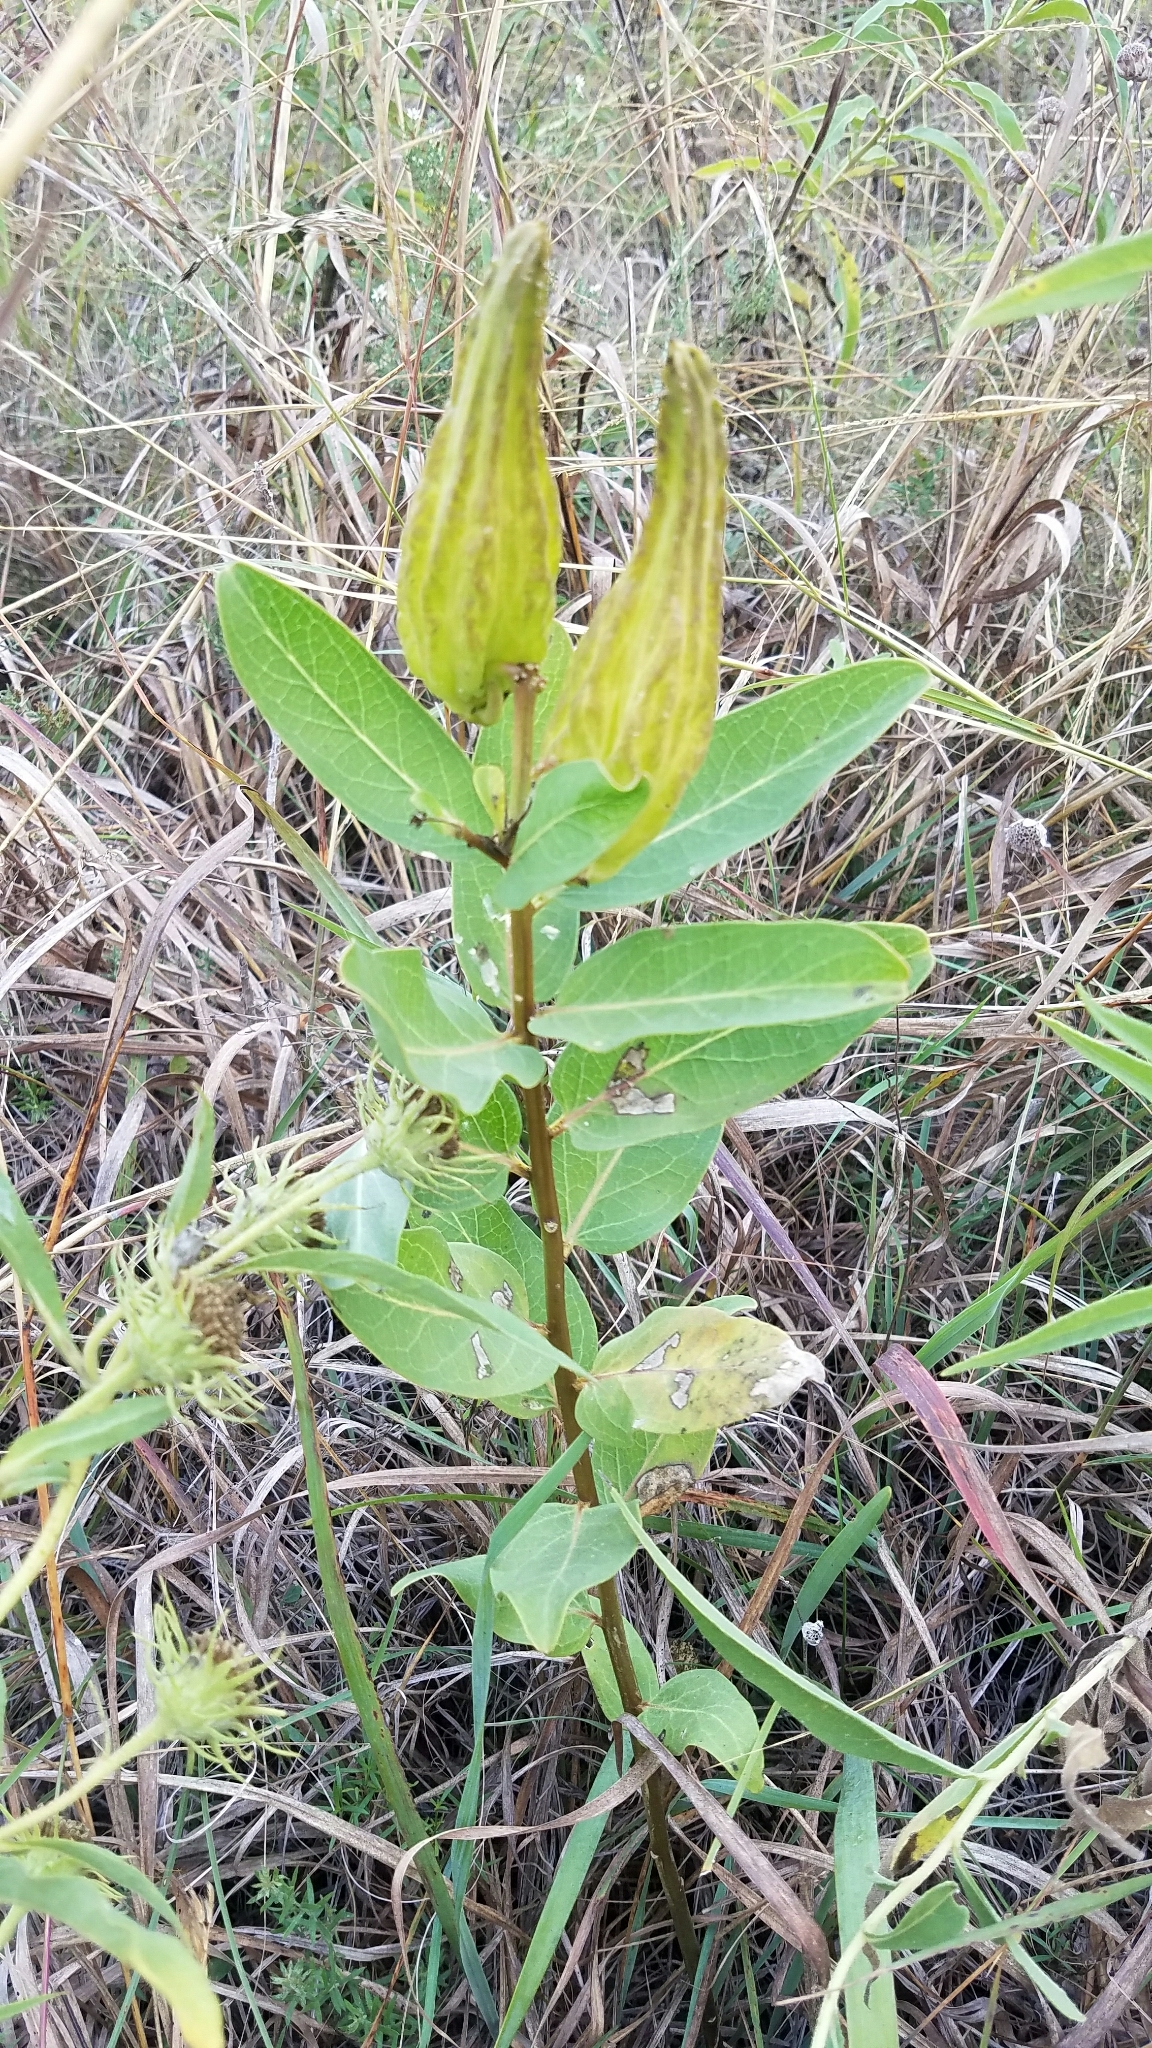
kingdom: Plantae
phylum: Tracheophyta
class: Magnoliopsida
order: Gentianales
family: Apocynaceae
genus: Asclepias
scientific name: Asclepias viridis
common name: Antelope-horns
